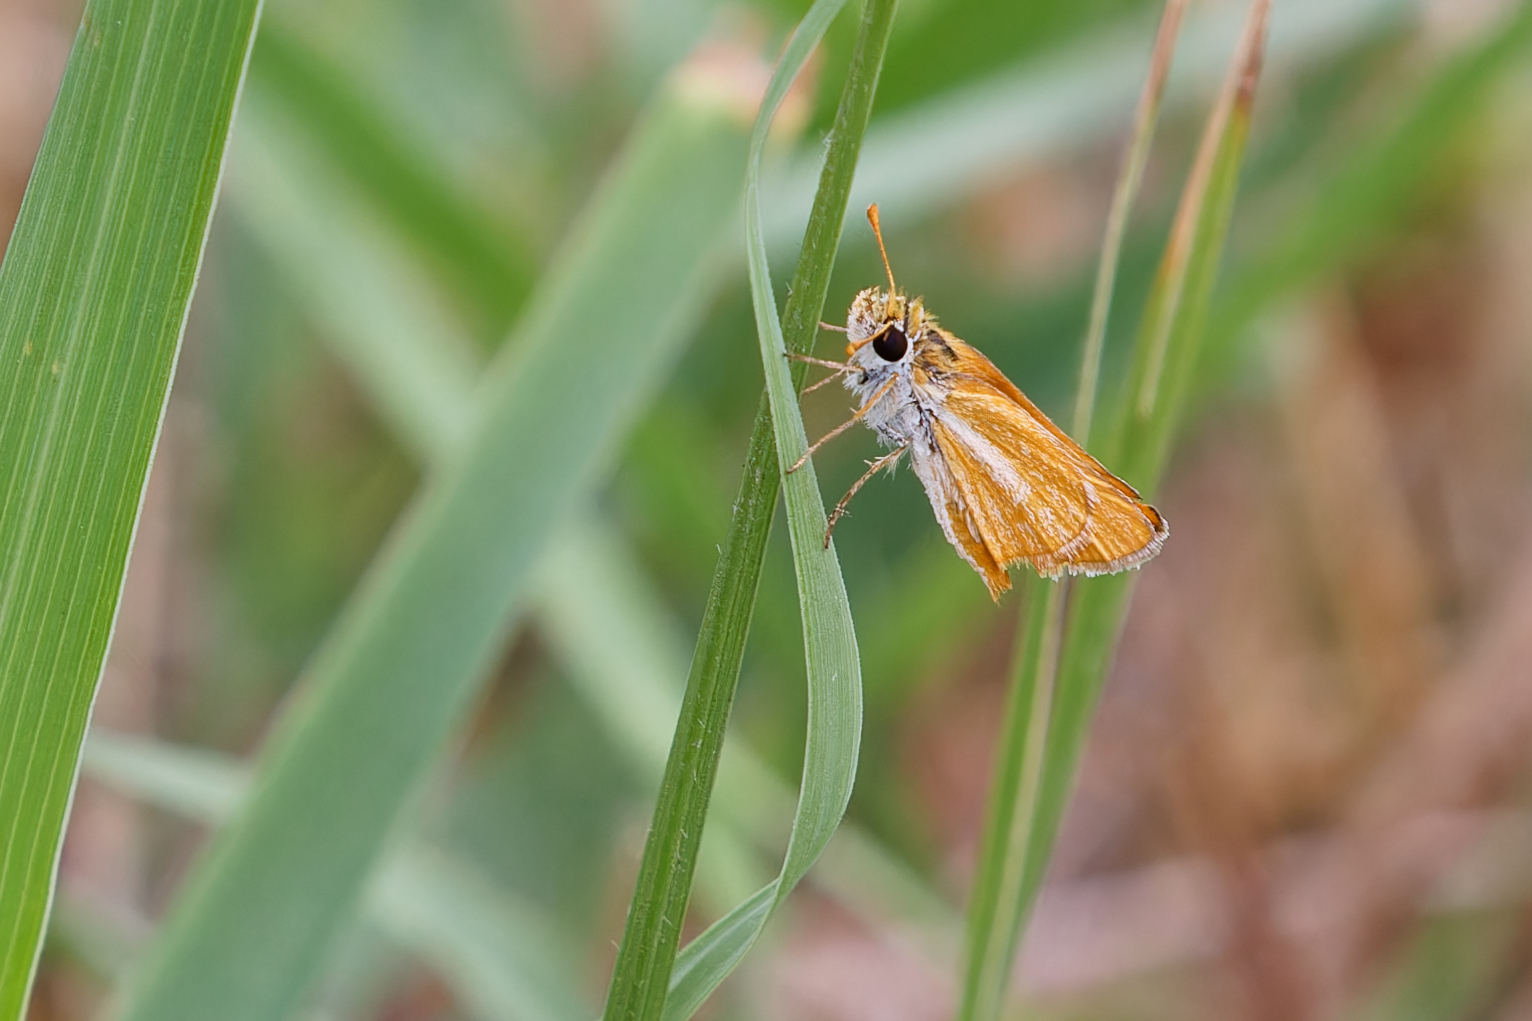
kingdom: Animalia
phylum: Arthropoda
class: Insecta
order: Lepidoptera
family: Hesperiidae
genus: Copaeodes
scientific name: Copaeodes minima
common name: Southern skipperling
